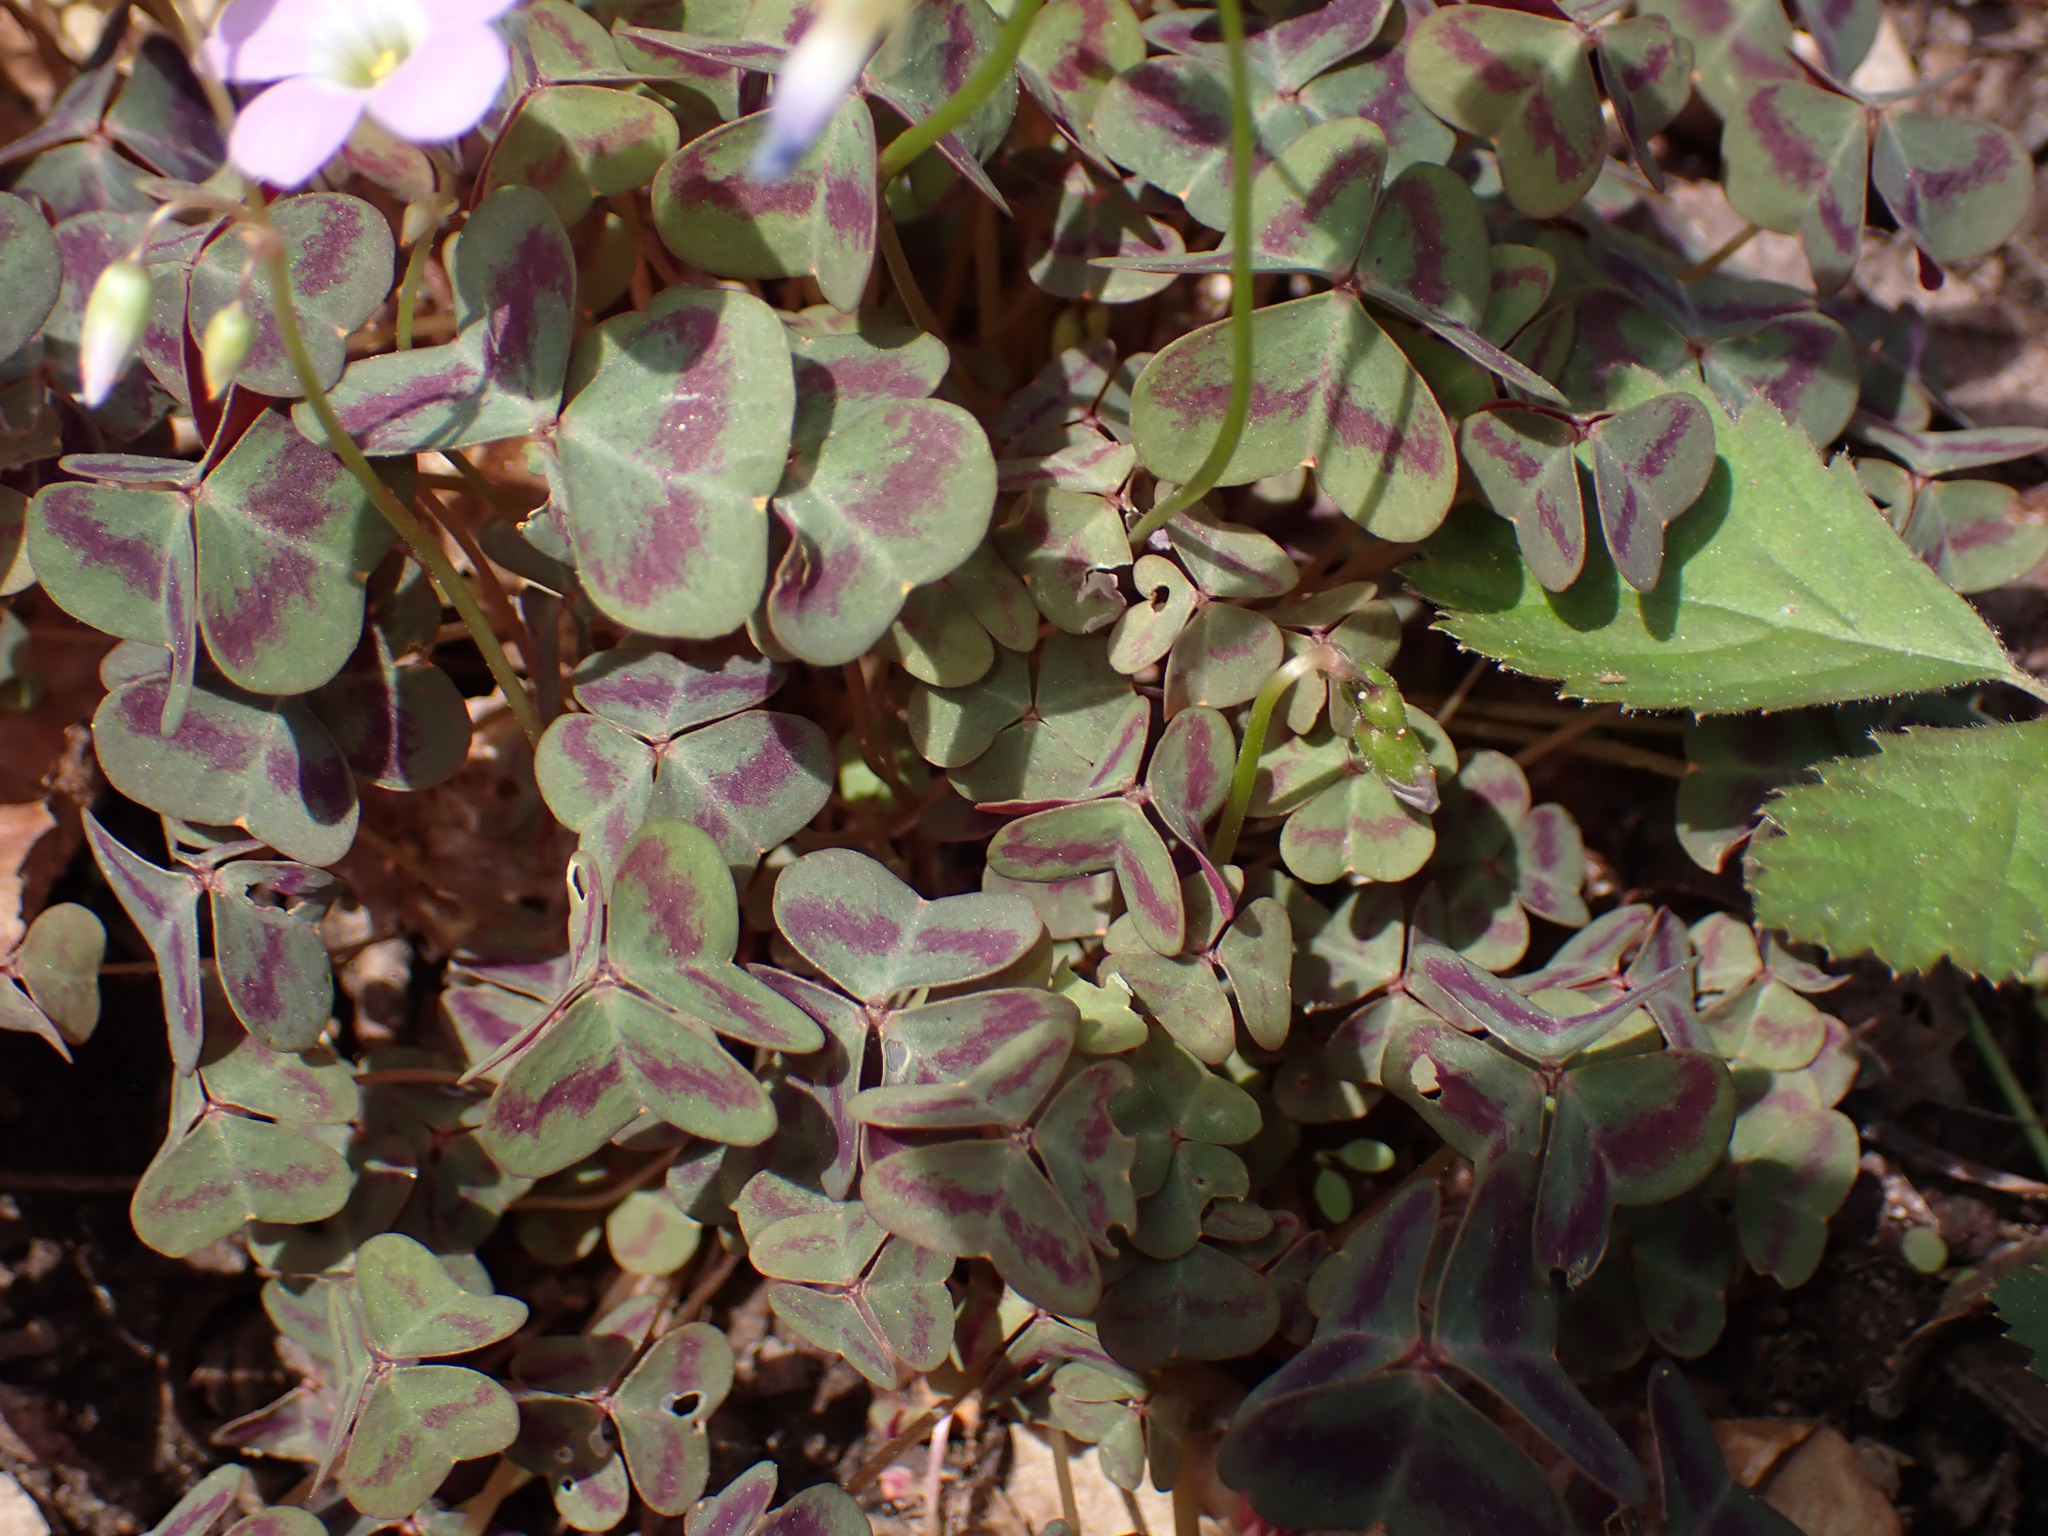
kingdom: Plantae
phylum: Tracheophyta
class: Magnoliopsida
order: Oxalidales
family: Oxalidaceae
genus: Oxalis
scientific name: Oxalis violacea
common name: Violet wood-sorrel
